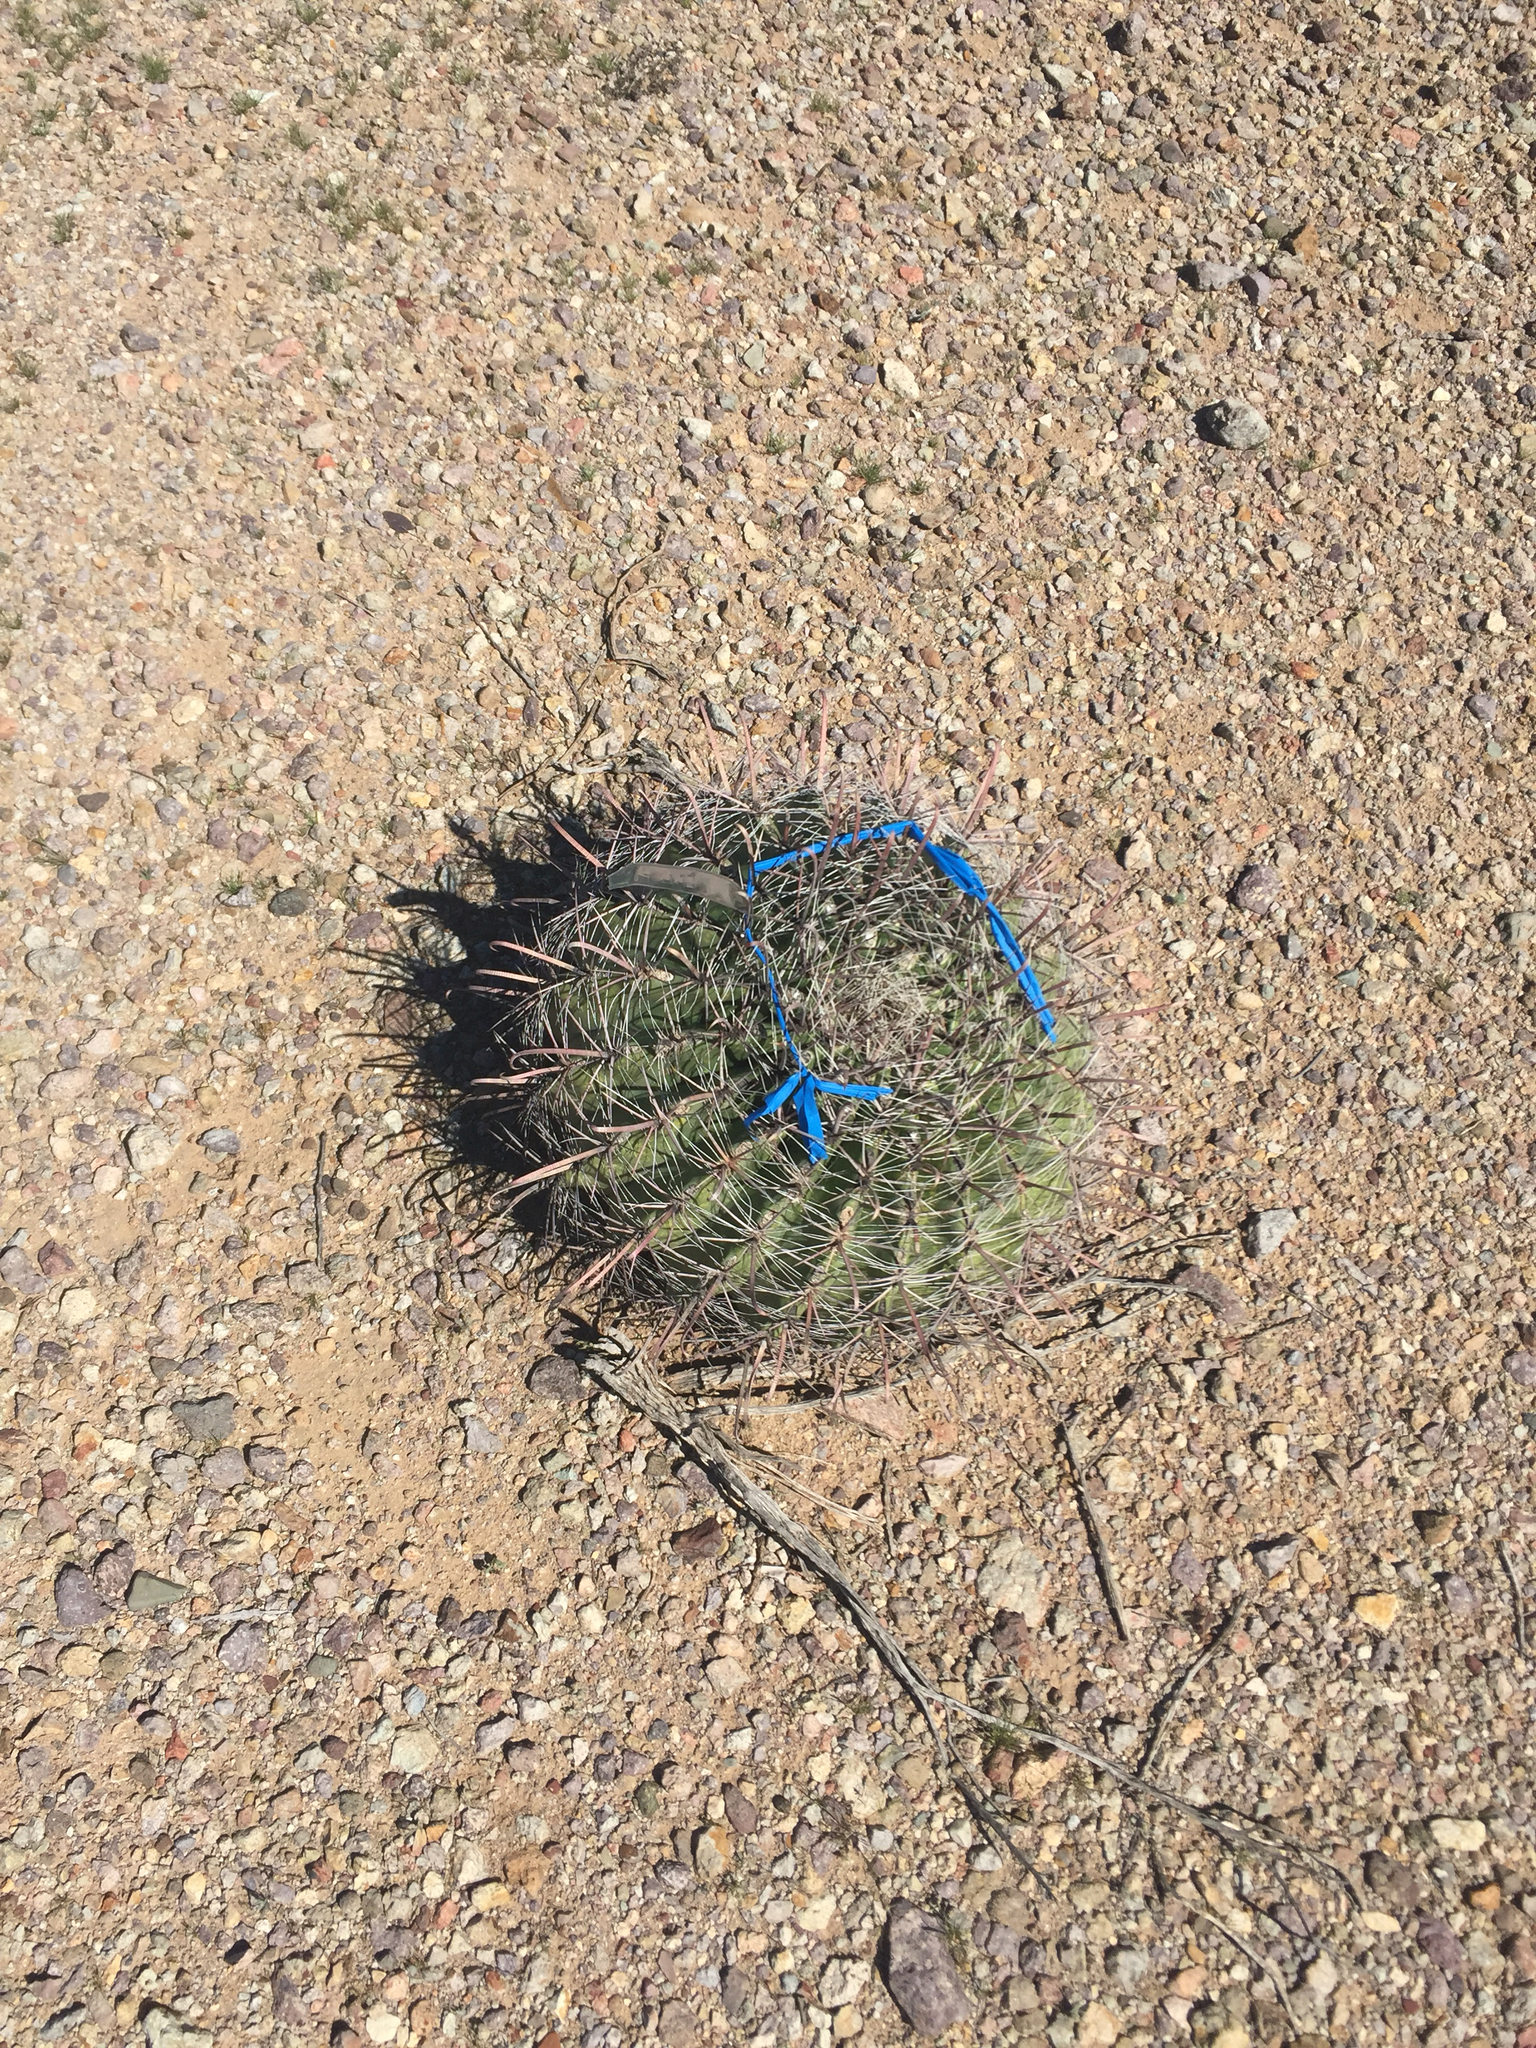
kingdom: Plantae
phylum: Tracheophyta
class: Magnoliopsida
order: Caryophyllales
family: Cactaceae
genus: Ferocactus
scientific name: Ferocactus wislizeni
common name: Candy barrel cactus
